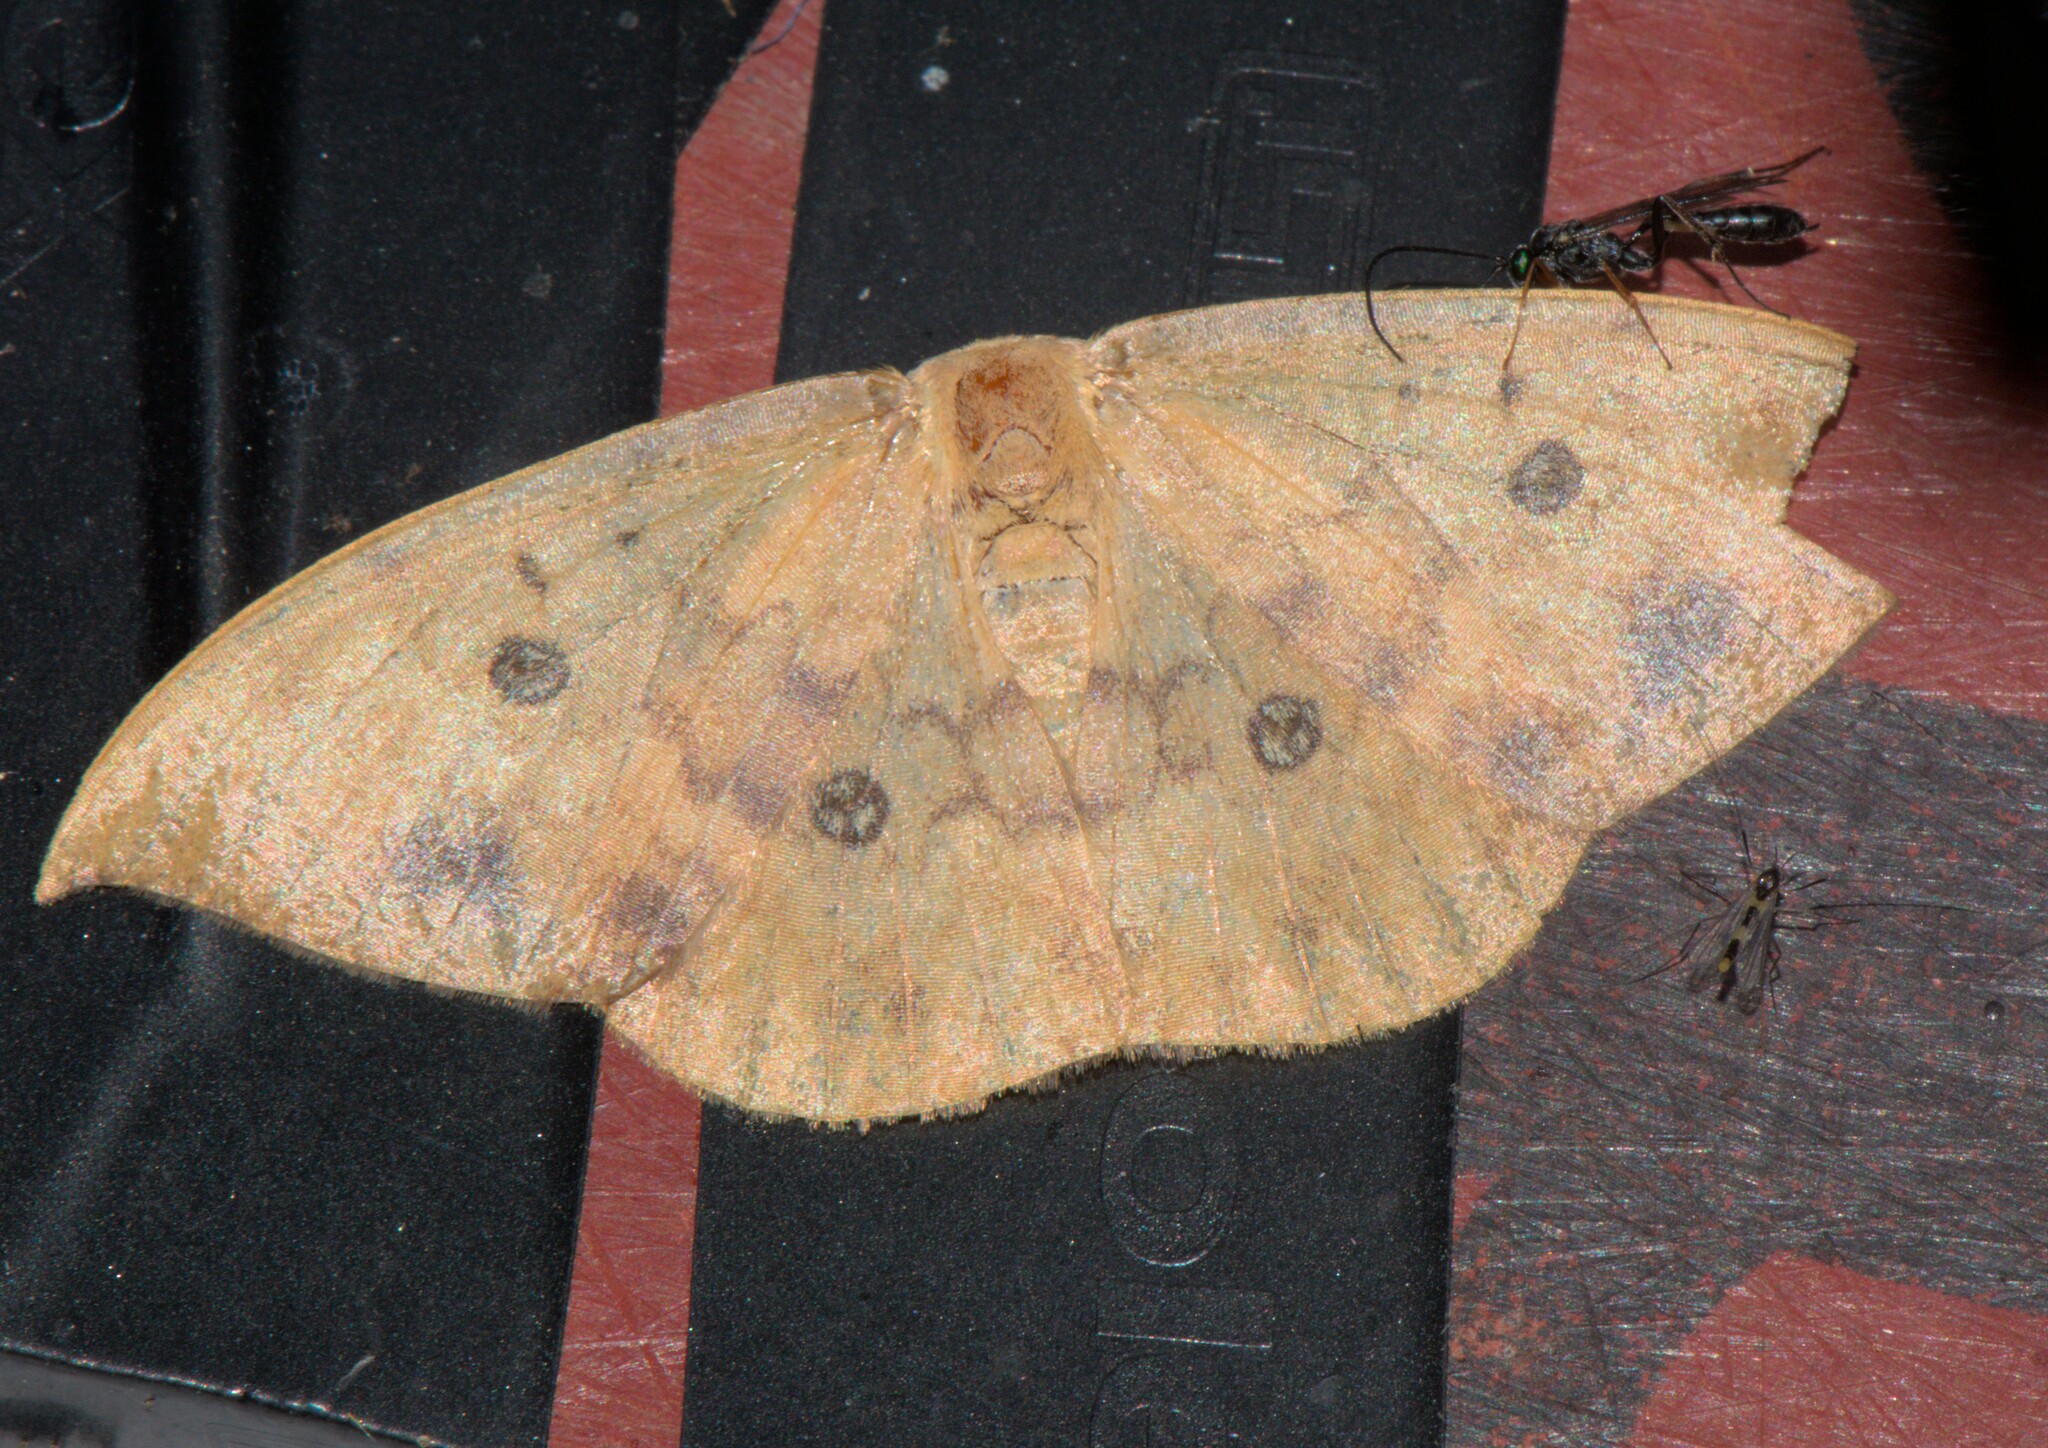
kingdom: Animalia
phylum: Arthropoda
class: Insecta
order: Lepidoptera
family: Drepanidae
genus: Agnidra
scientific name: Agnidra discispilaria
